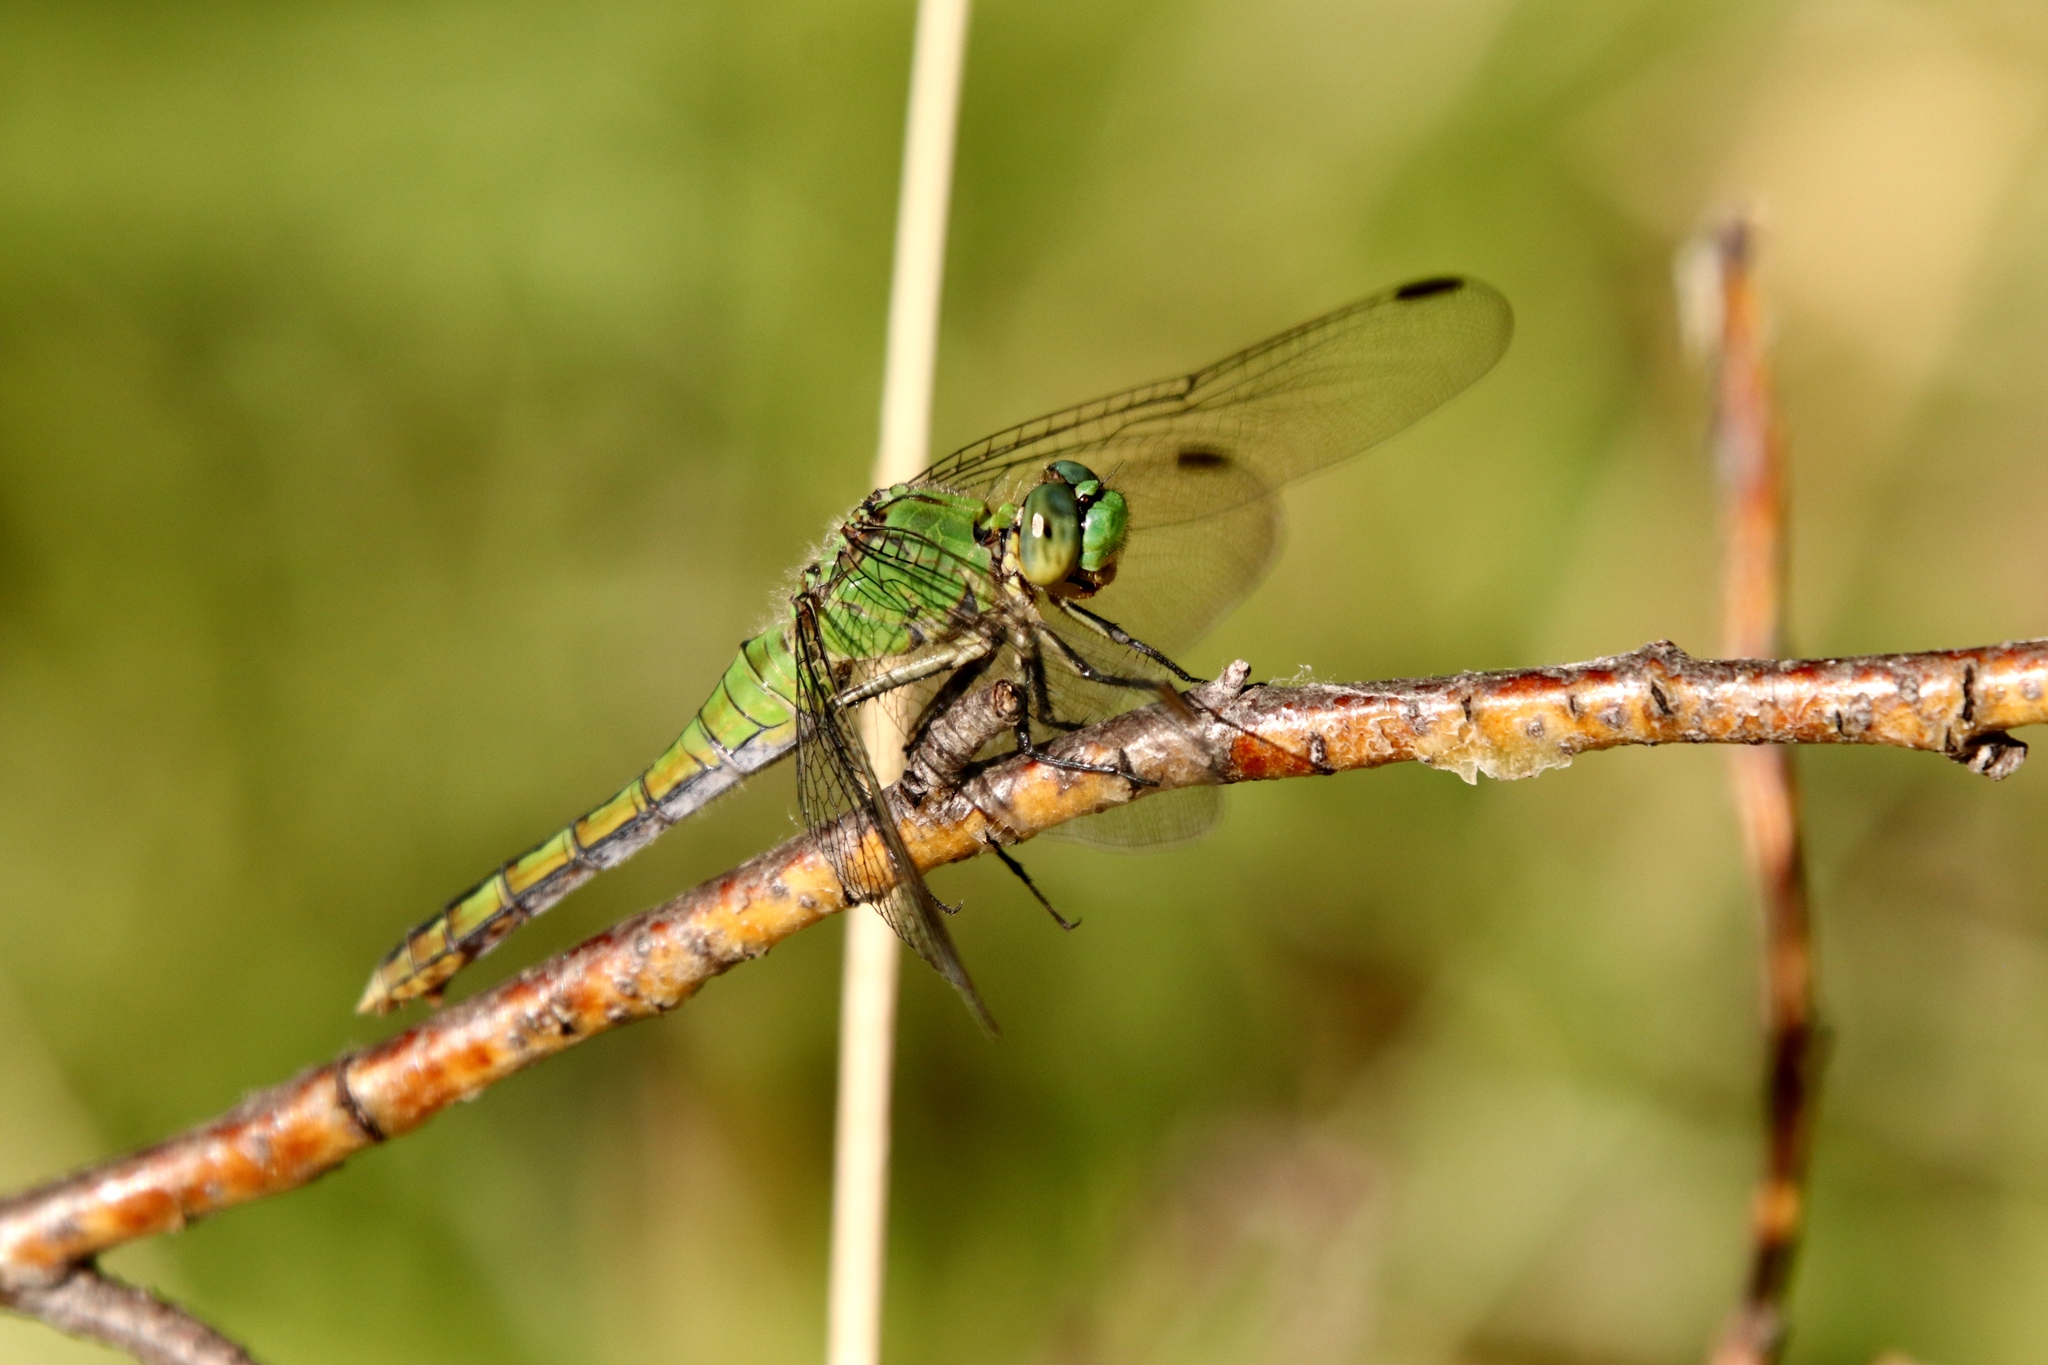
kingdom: Animalia
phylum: Arthropoda
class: Insecta
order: Odonata
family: Libellulidae
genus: Erythemis
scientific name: Erythemis collocata
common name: Western pondhawk
